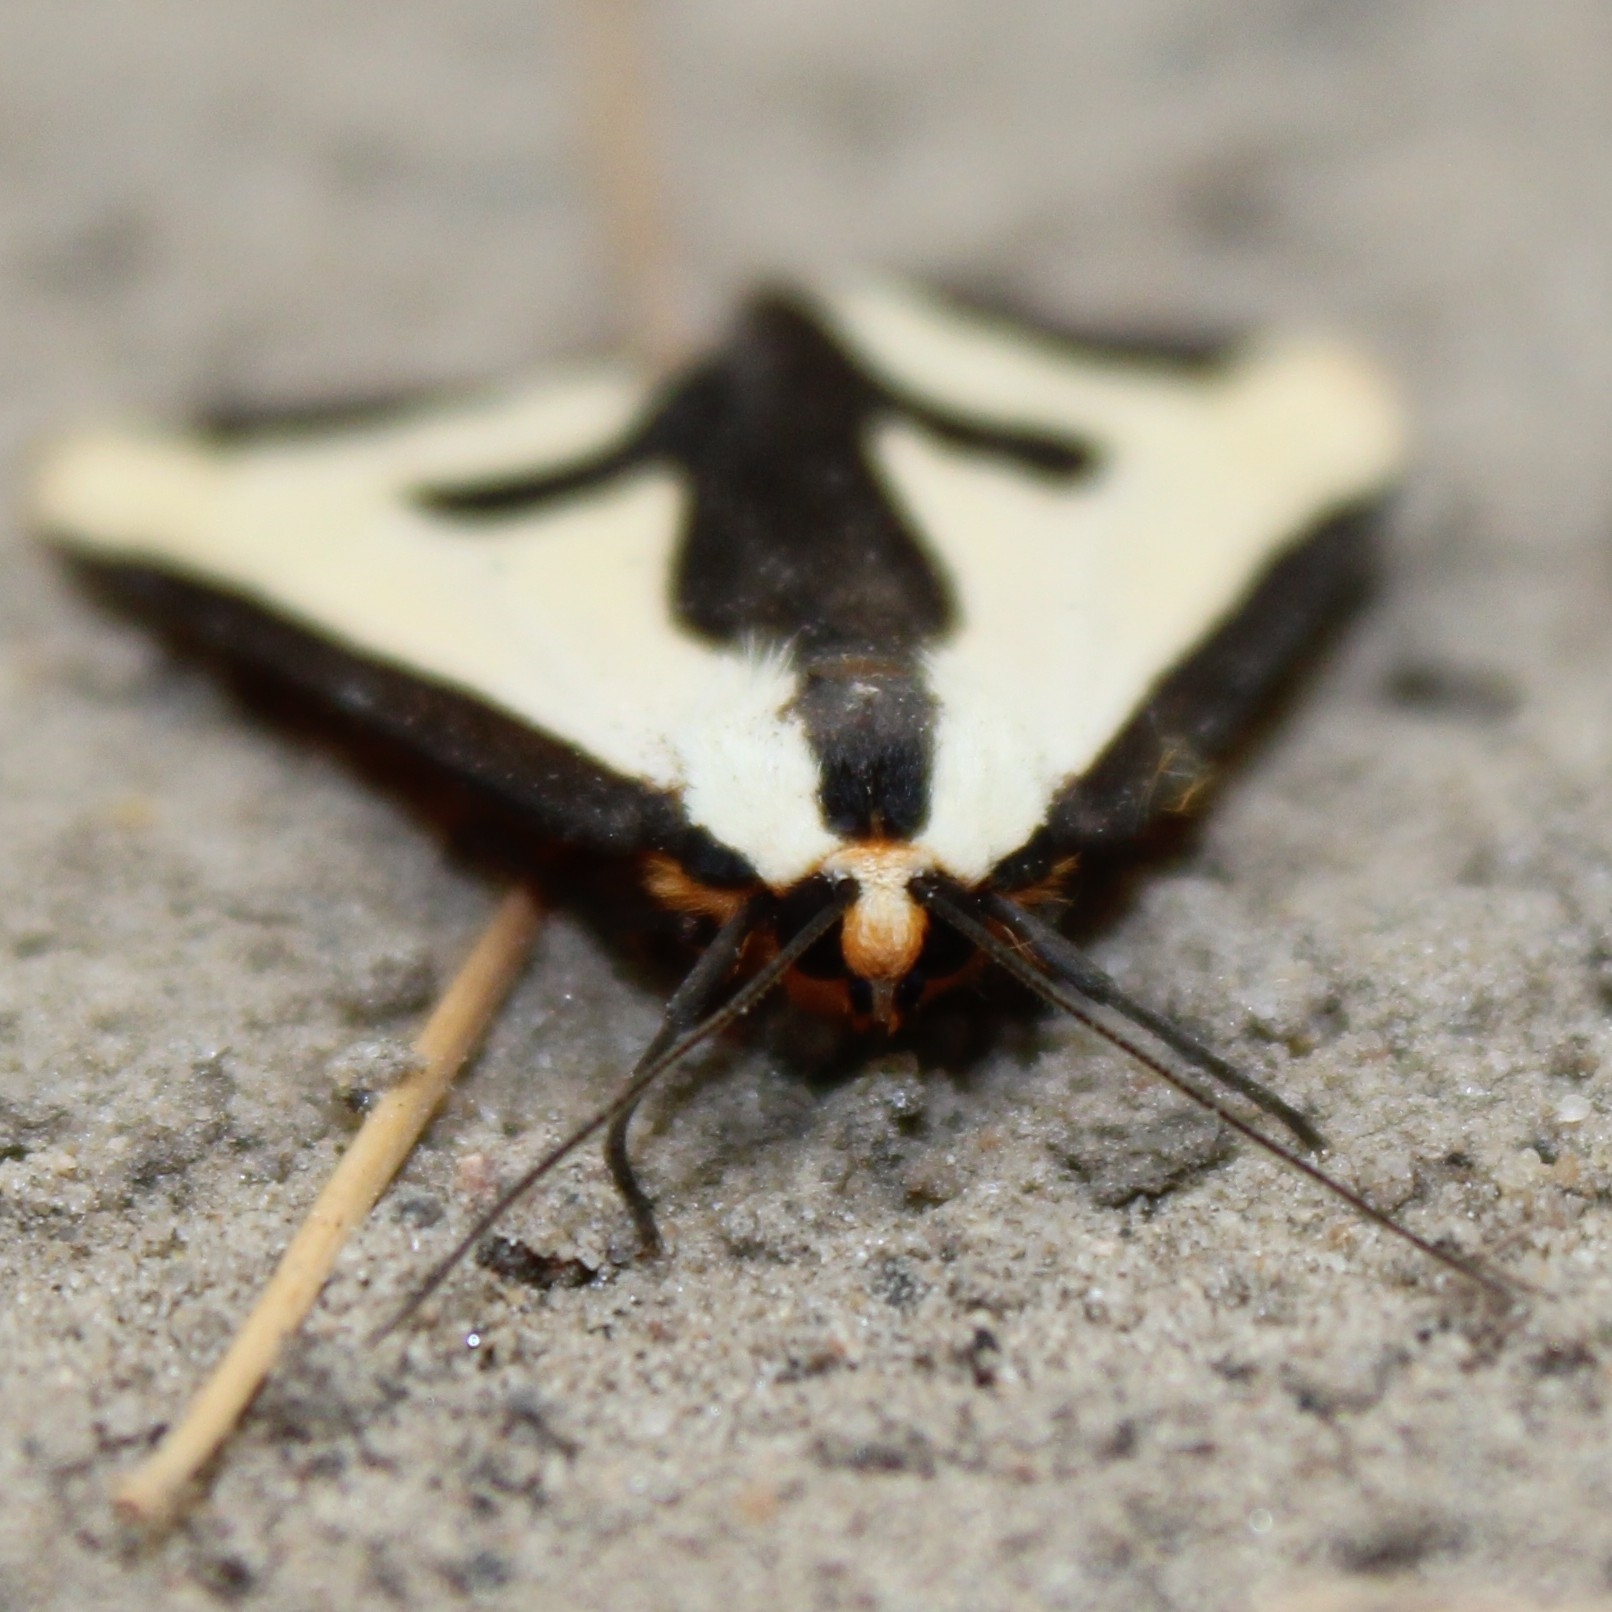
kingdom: Animalia
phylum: Arthropoda
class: Insecta
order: Lepidoptera
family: Erebidae
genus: Haploa
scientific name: Haploa clymene
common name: Clymene moth
